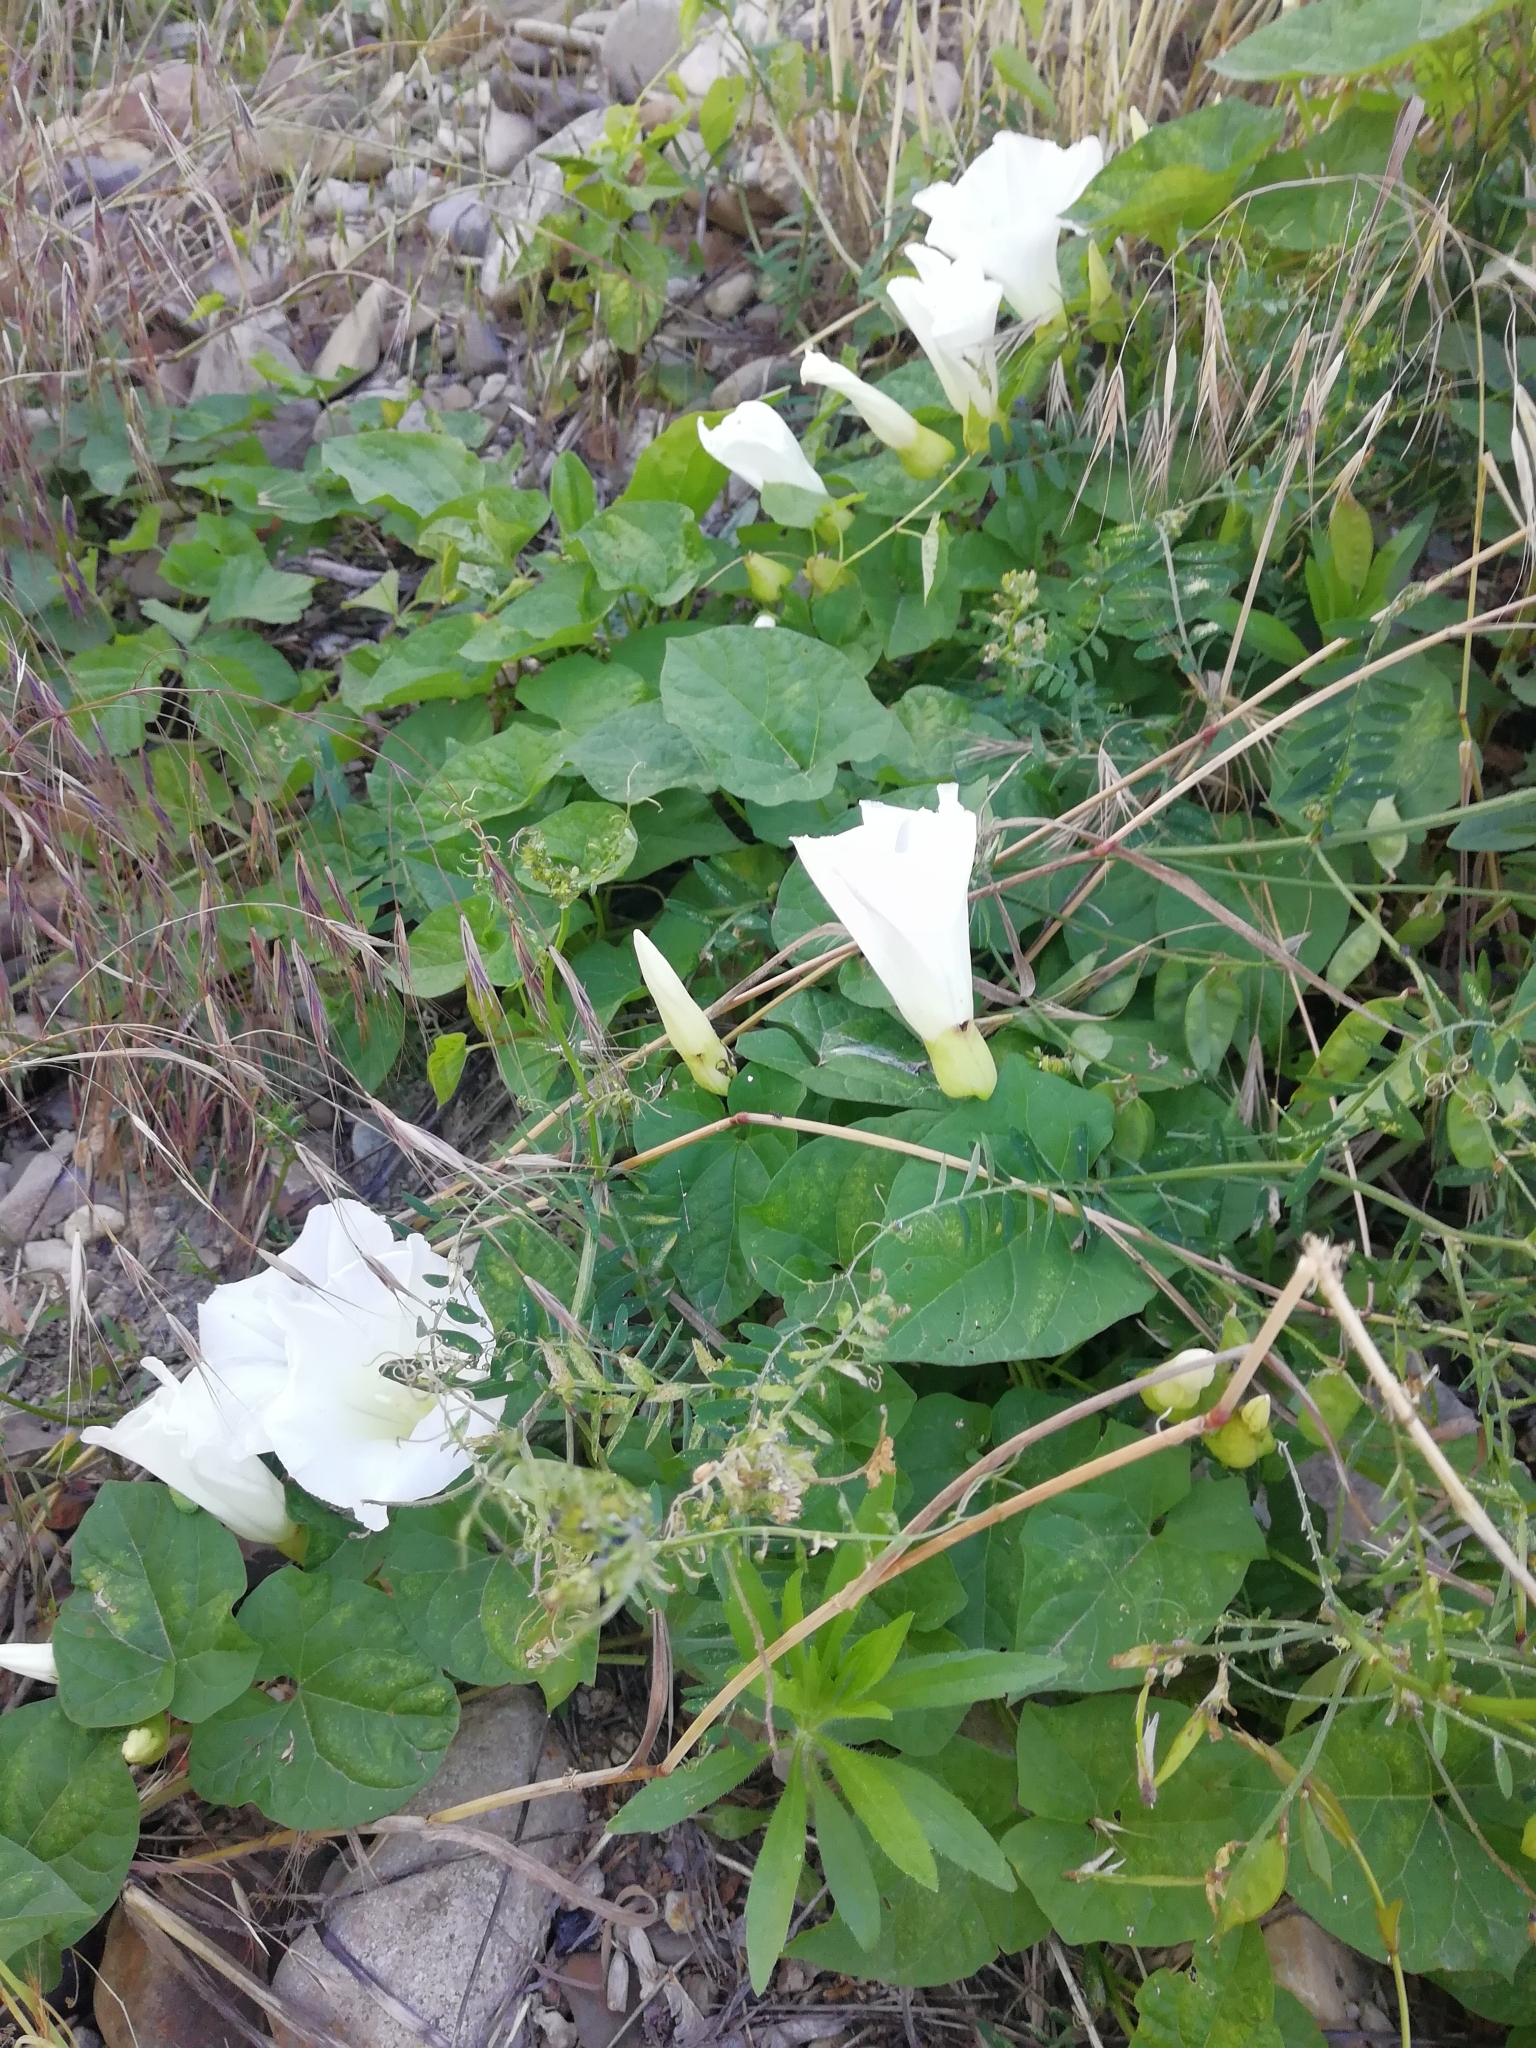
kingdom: Plantae
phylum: Tracheophyta
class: Magnoliopsida
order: Solanales
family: Convolvulaceae
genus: Calystegia
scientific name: Calystegia silvatica
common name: Large bindweed
